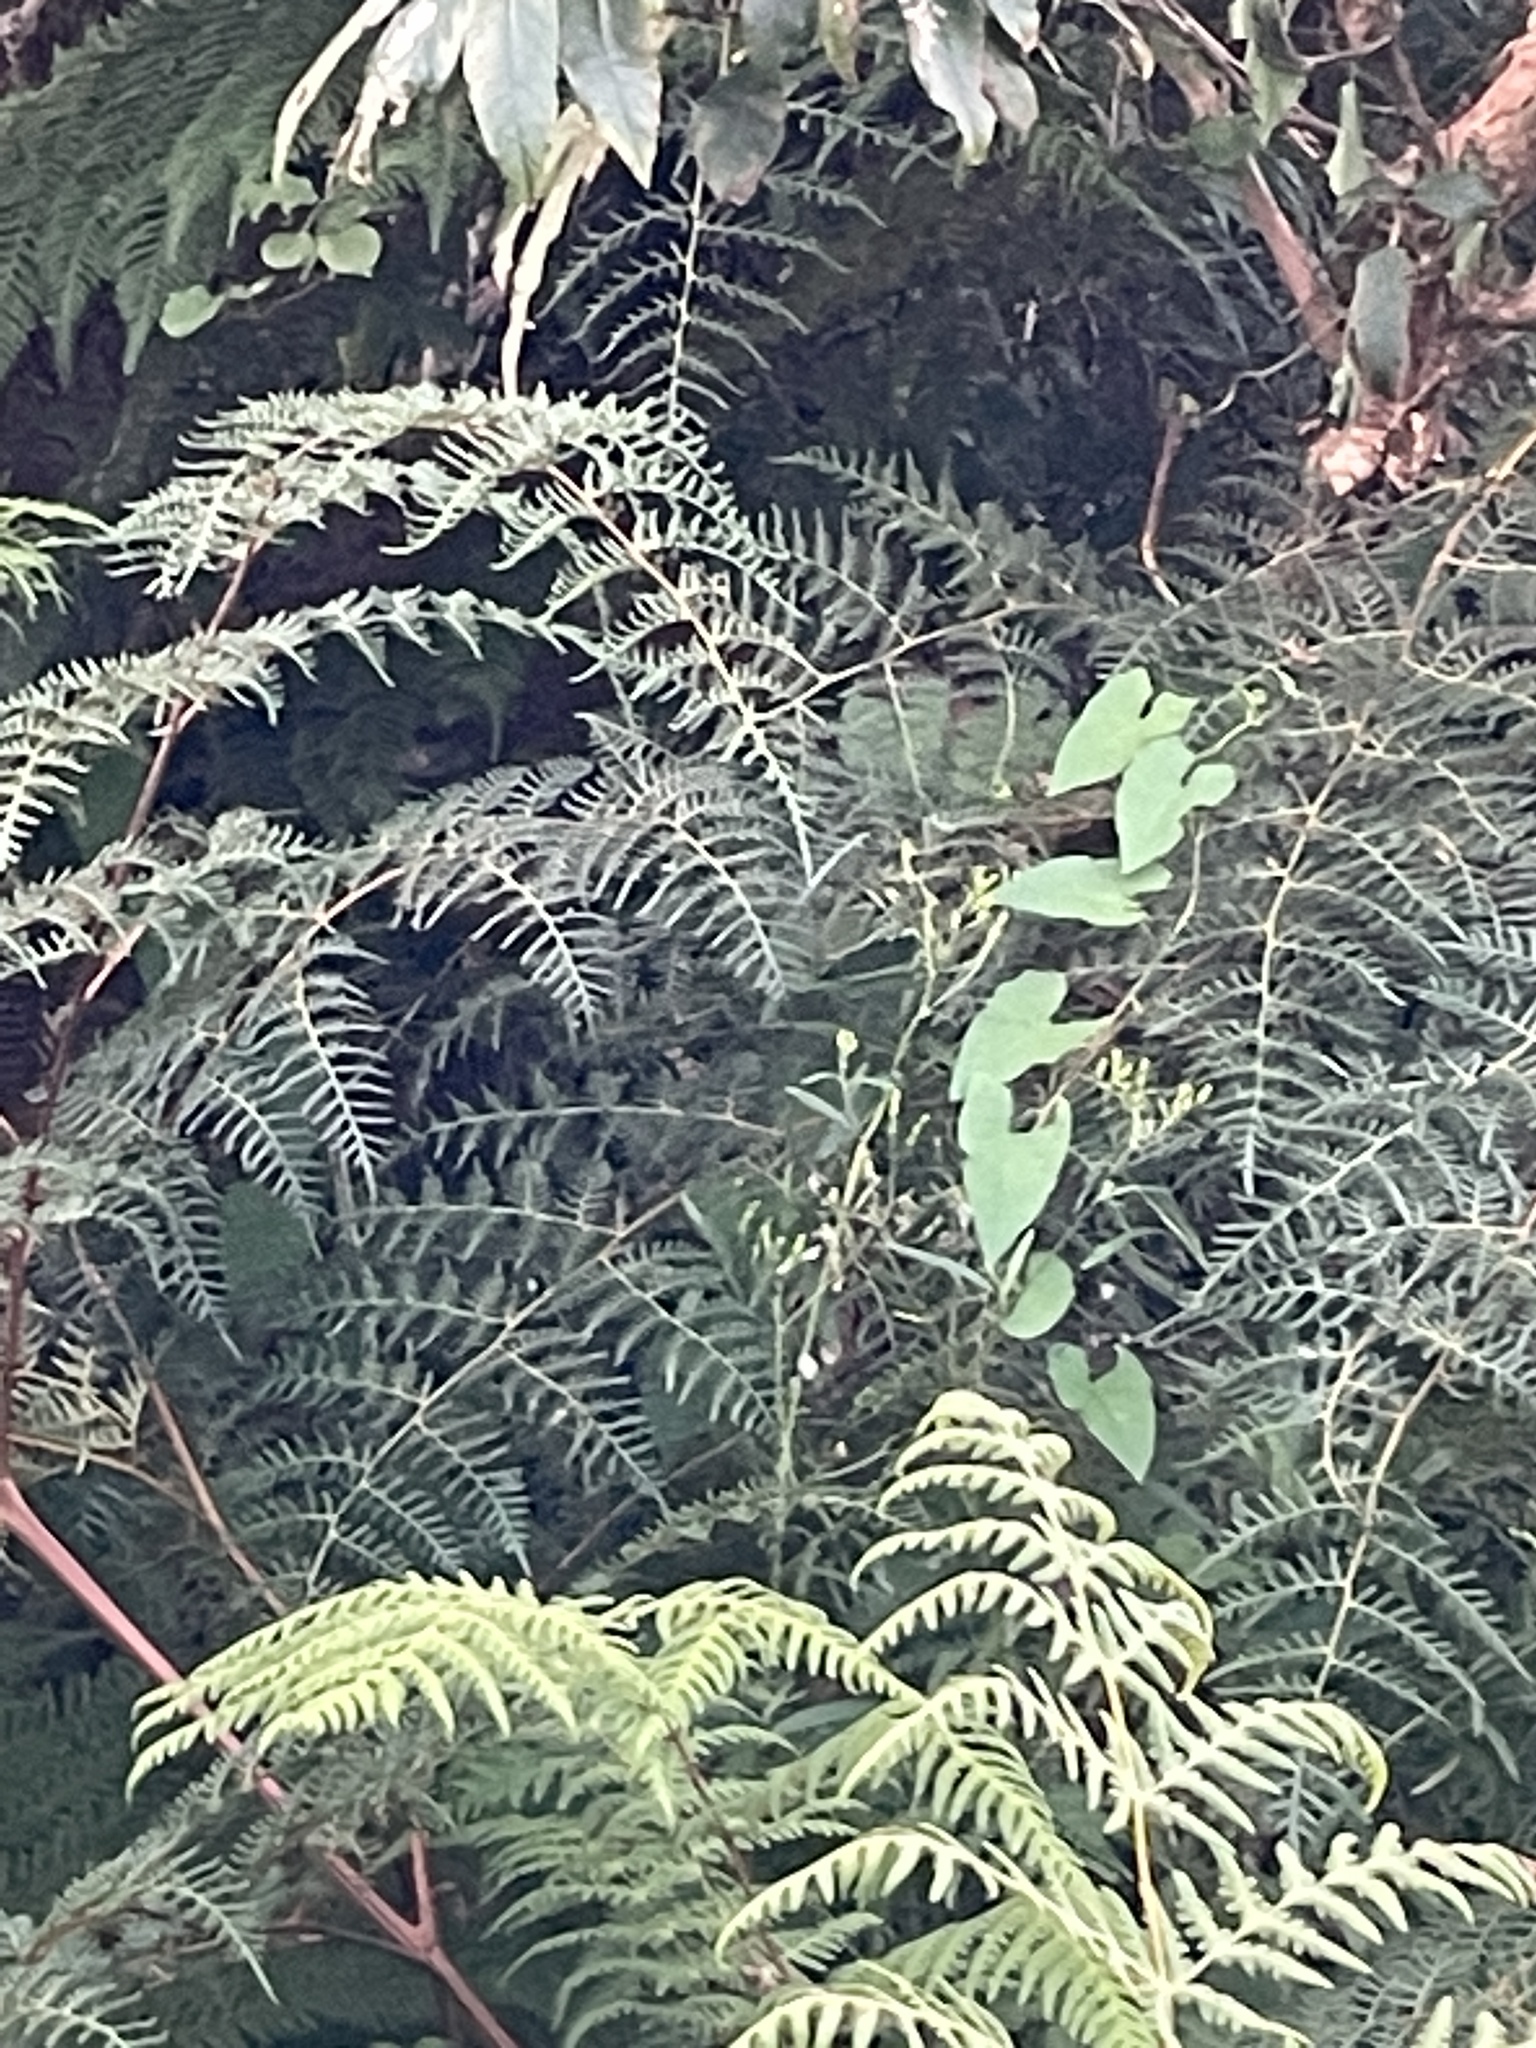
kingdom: Plantae
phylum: Tracheophyta
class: Magnoliopsida
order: Solanales
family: Convolvulaceae
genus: Calystegia
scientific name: Calystegia silvatica
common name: Large bindweed
